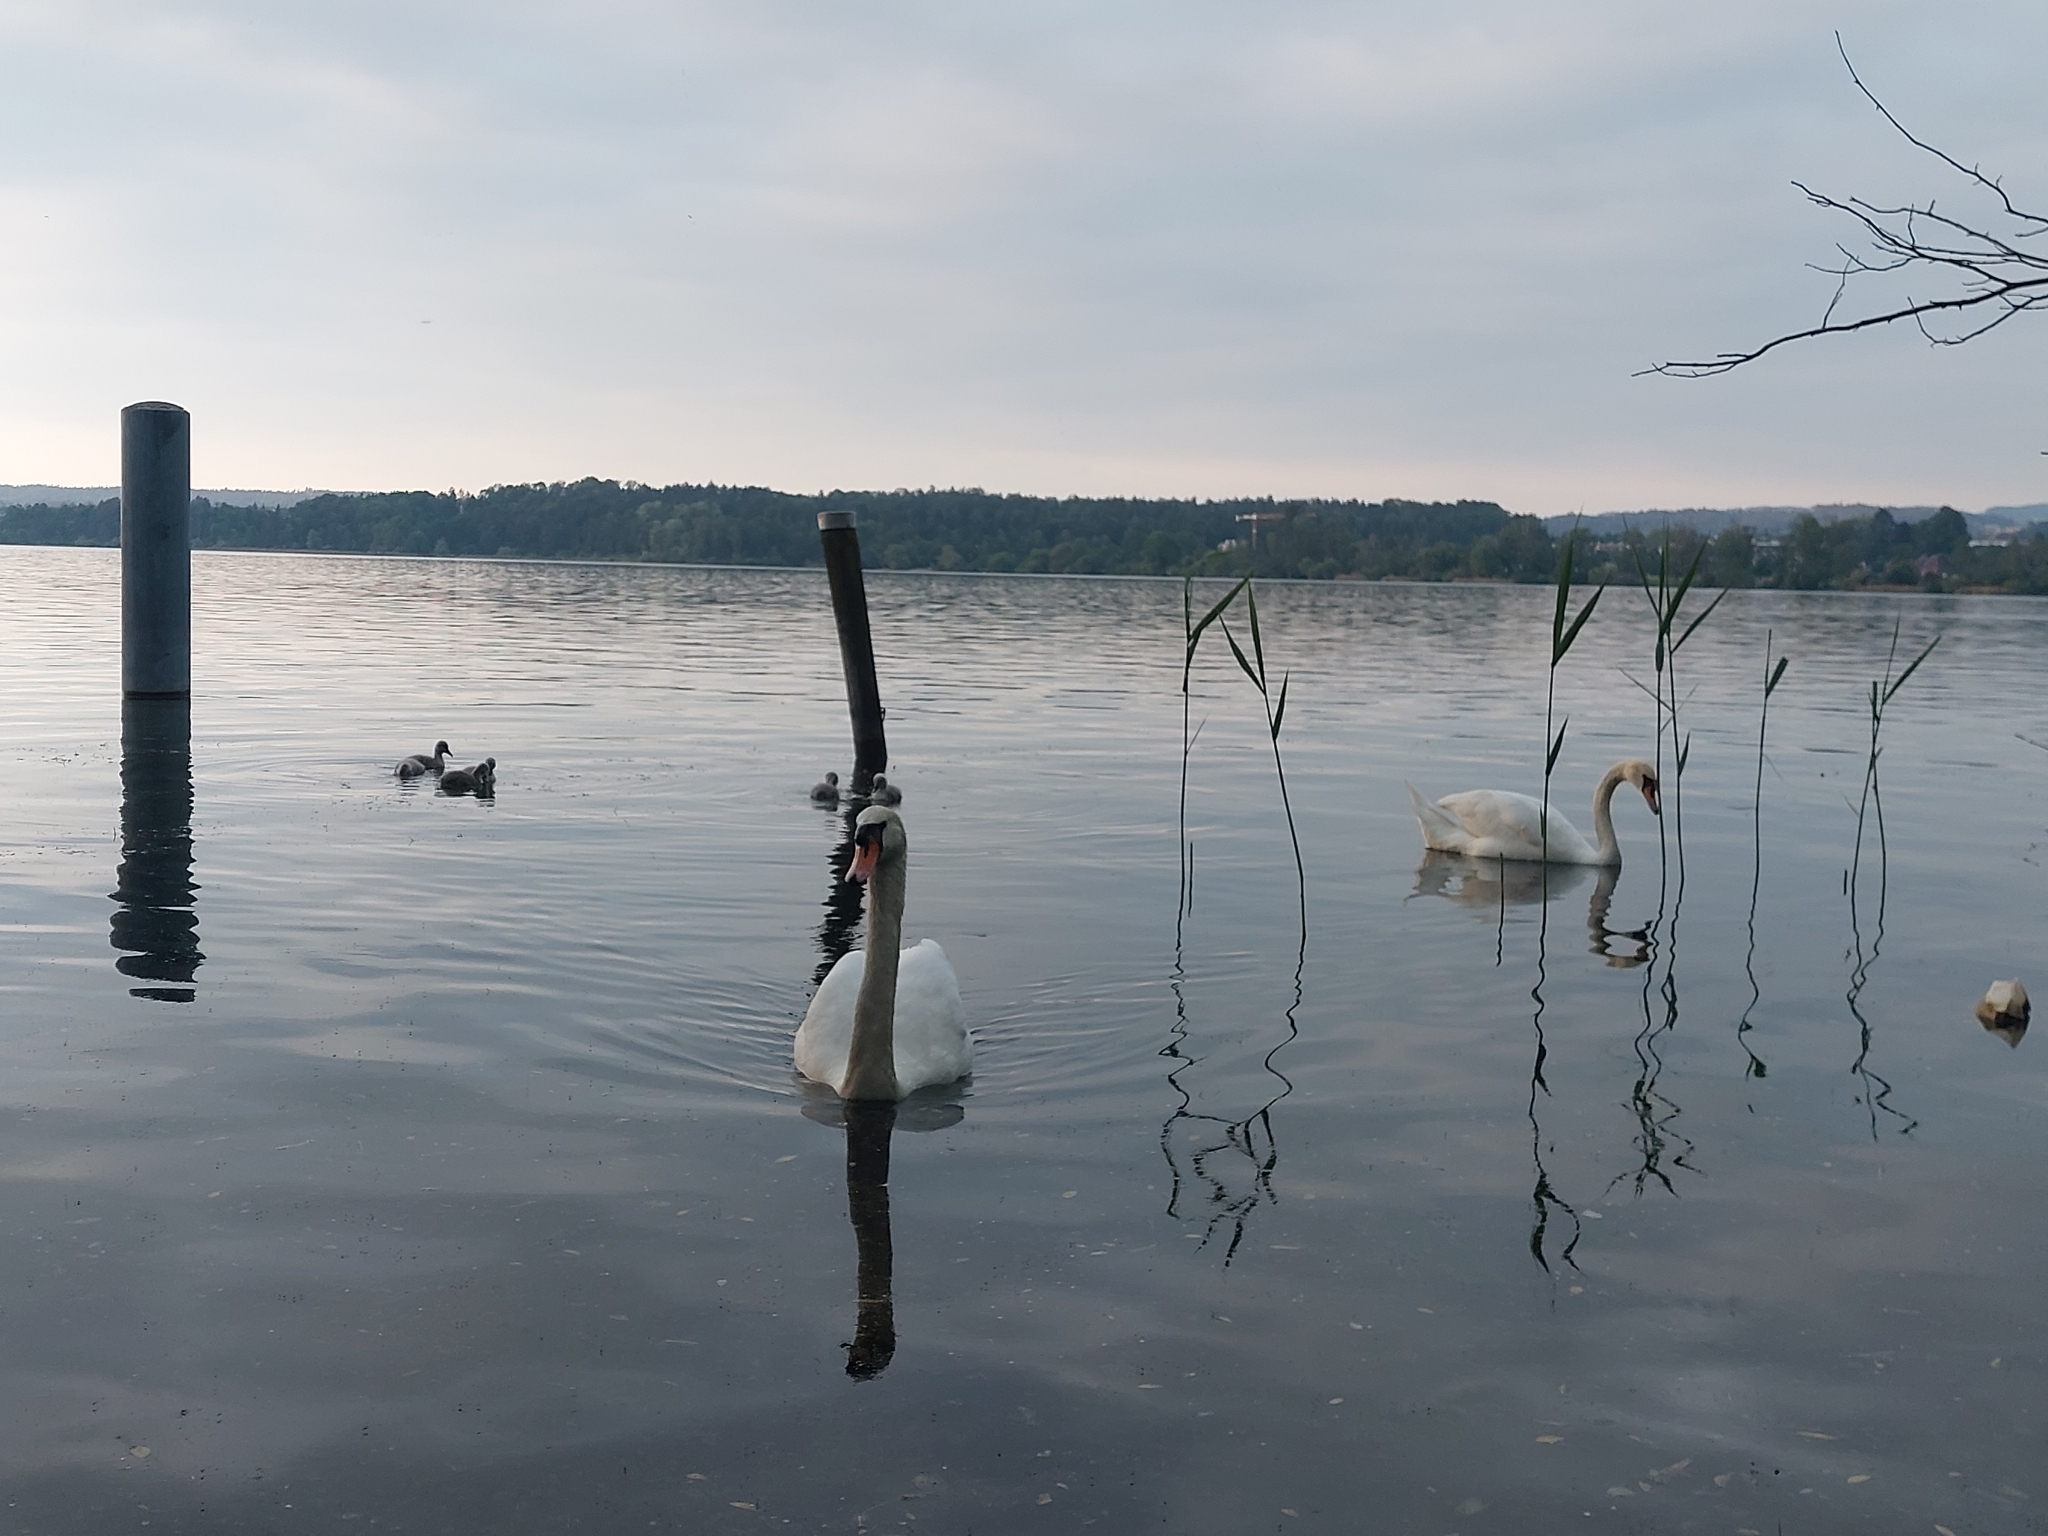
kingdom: Animalia
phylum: Chordata
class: Aves
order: Anseriformes
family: Anatidae
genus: Cygnus
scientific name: Cygnus olor
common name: Mute swan
